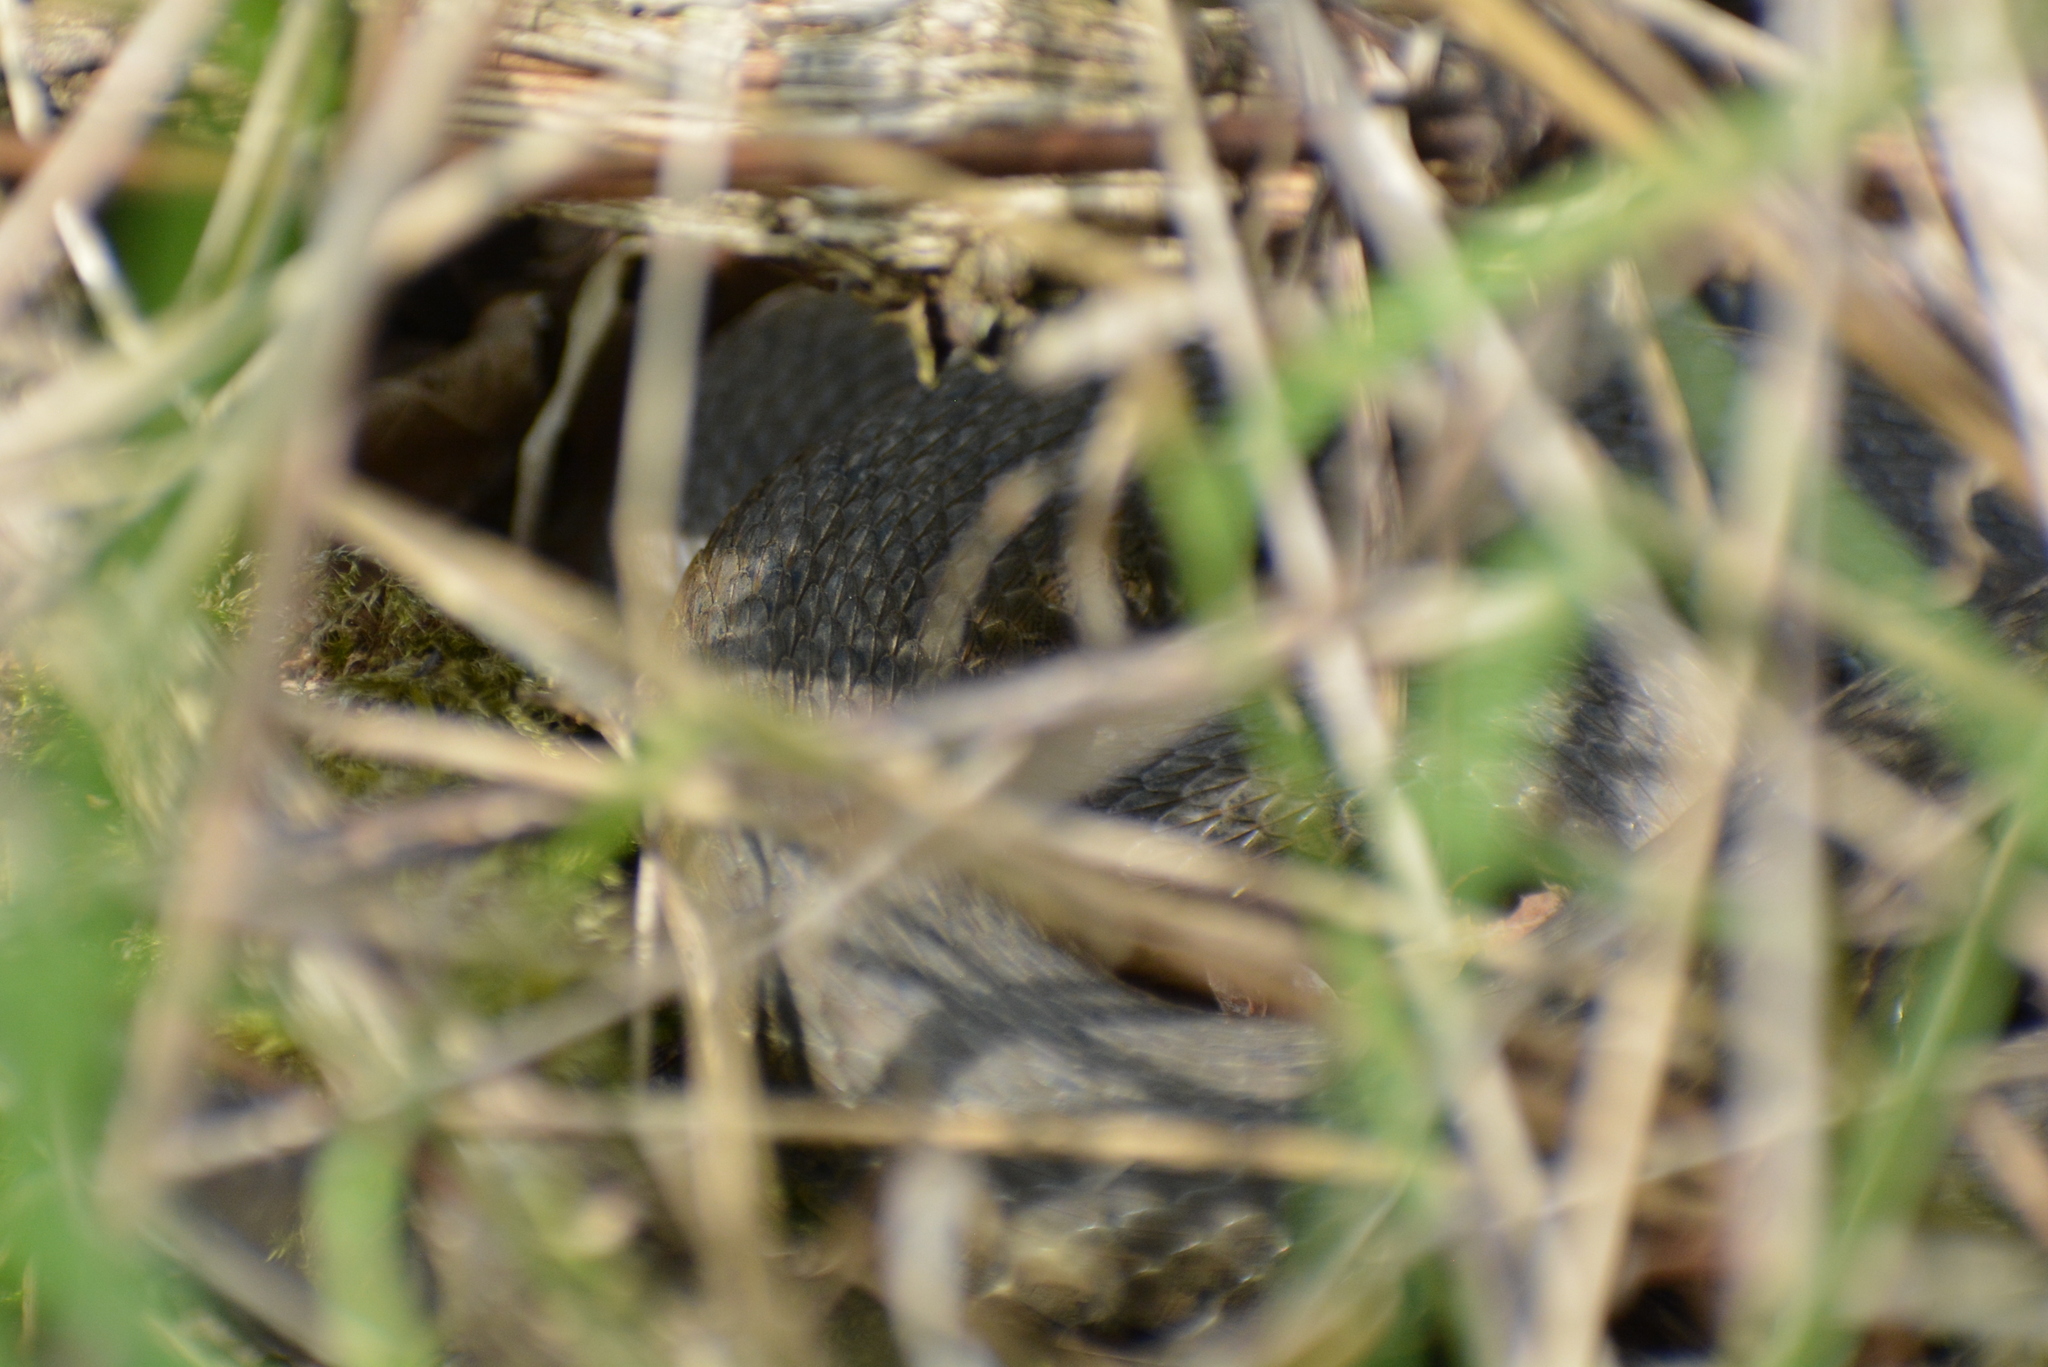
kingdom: Animalia
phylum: Chordata
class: Squamata
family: Colubridae
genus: Natrix
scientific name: Natrix tessellata
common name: Dice snake
